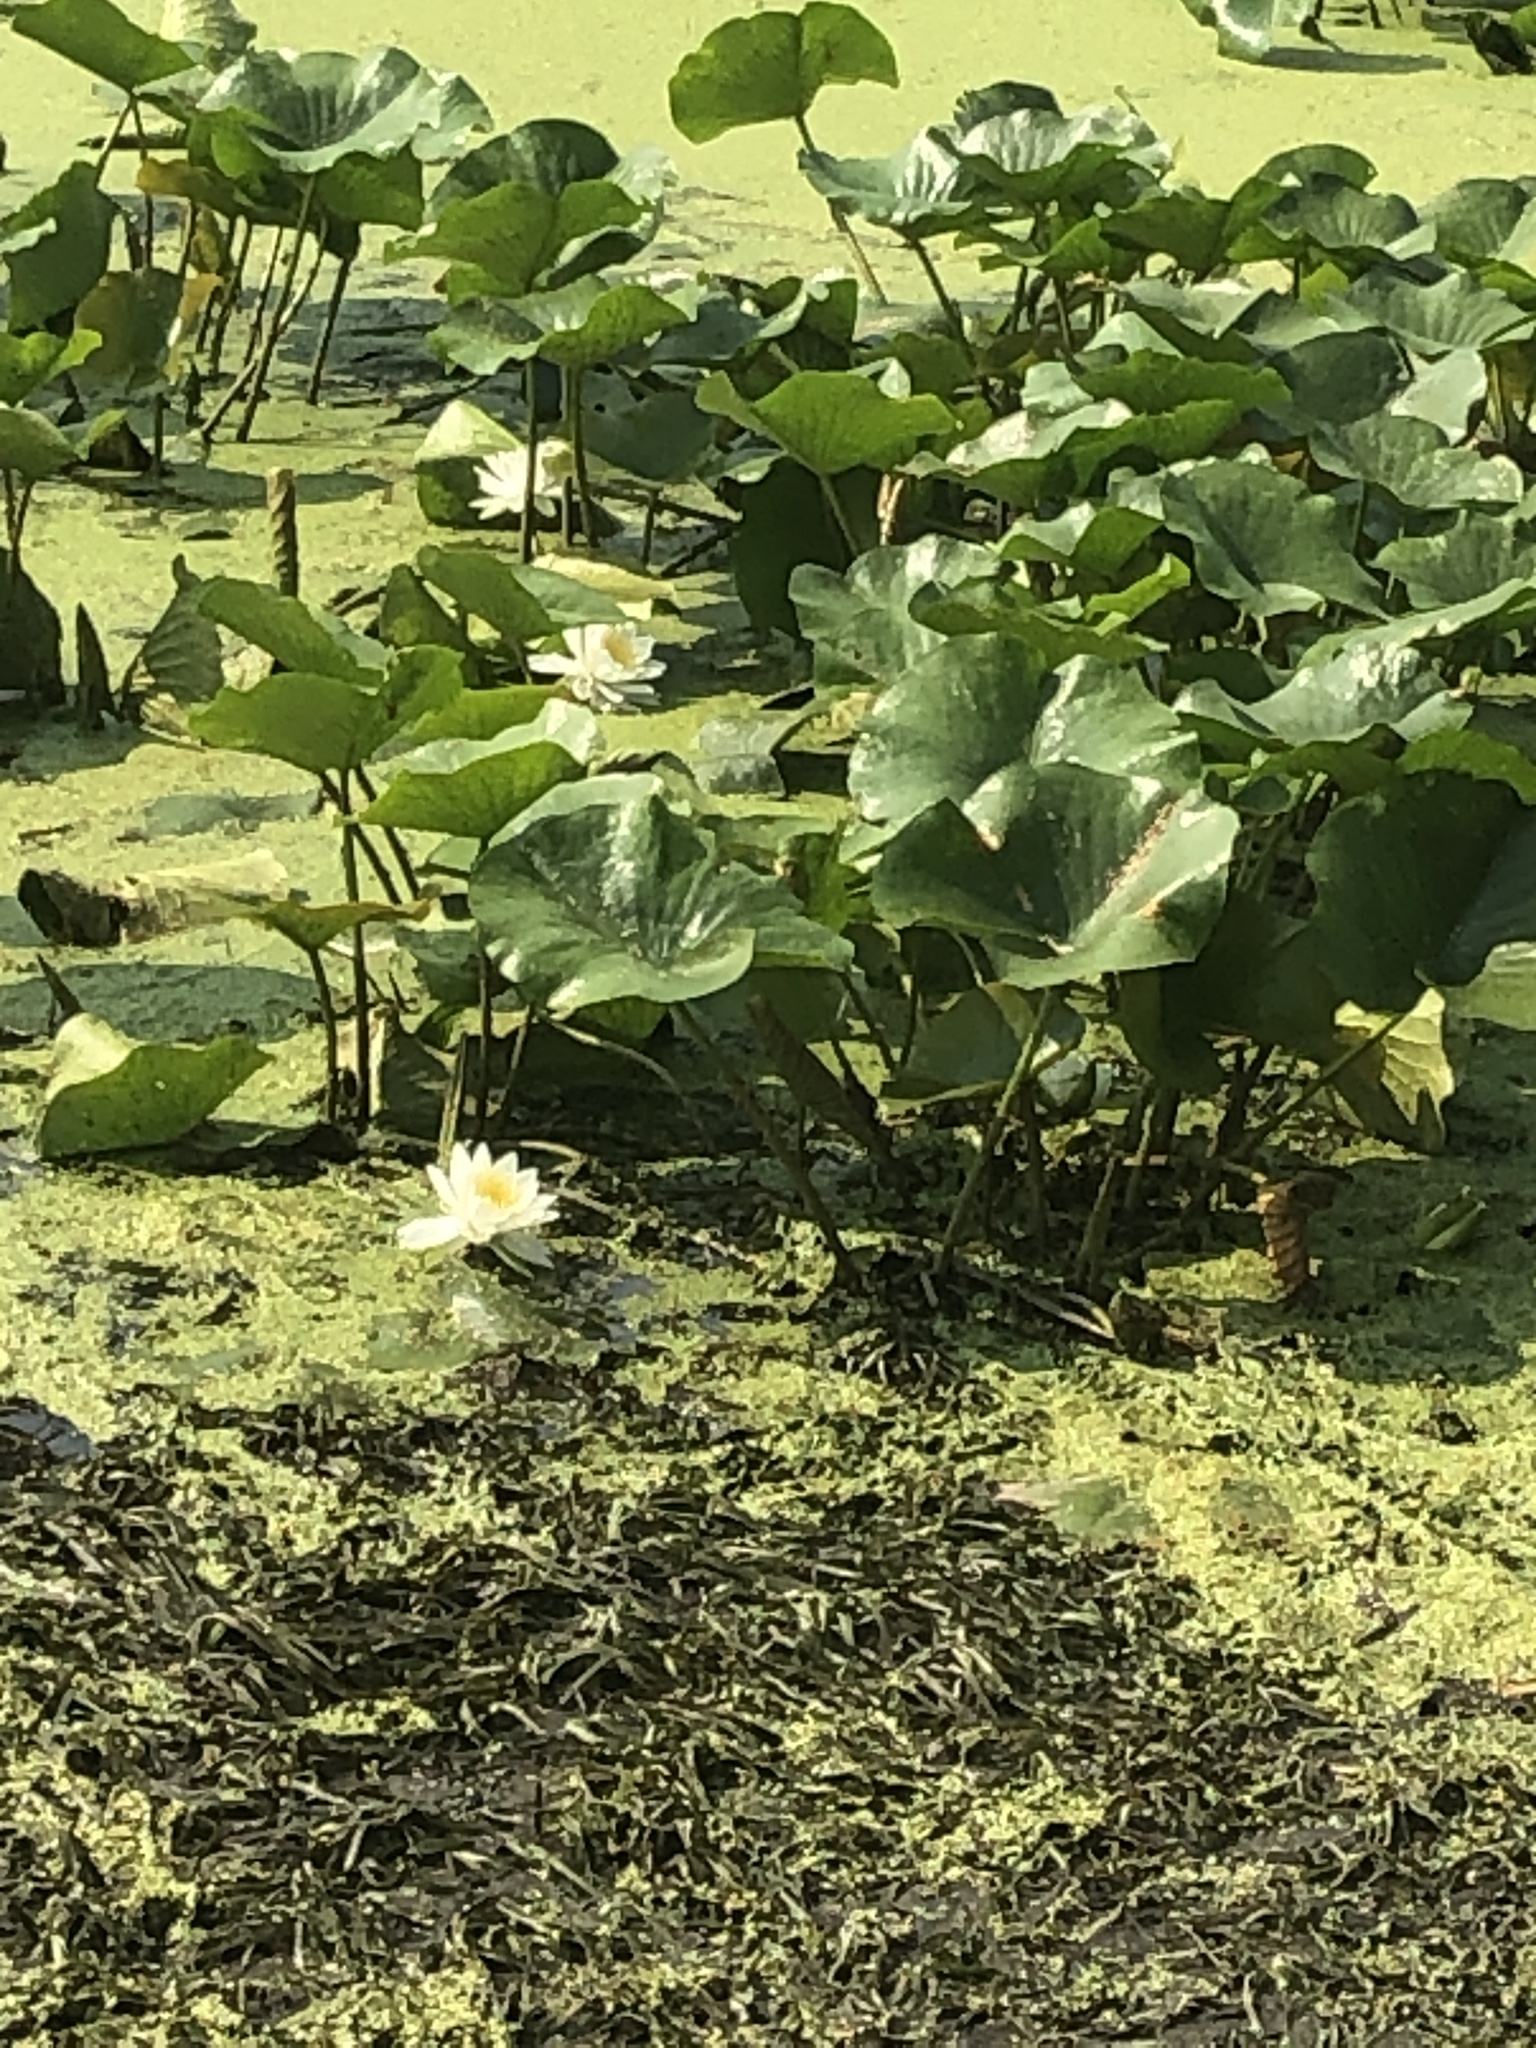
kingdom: Plantae
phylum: Tracheophyta
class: Magnoliopsida
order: Nymphaeales
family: Nymphaeaceae
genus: Nymphaea
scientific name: Nymphaea odorata
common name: Fragrant water-lily
